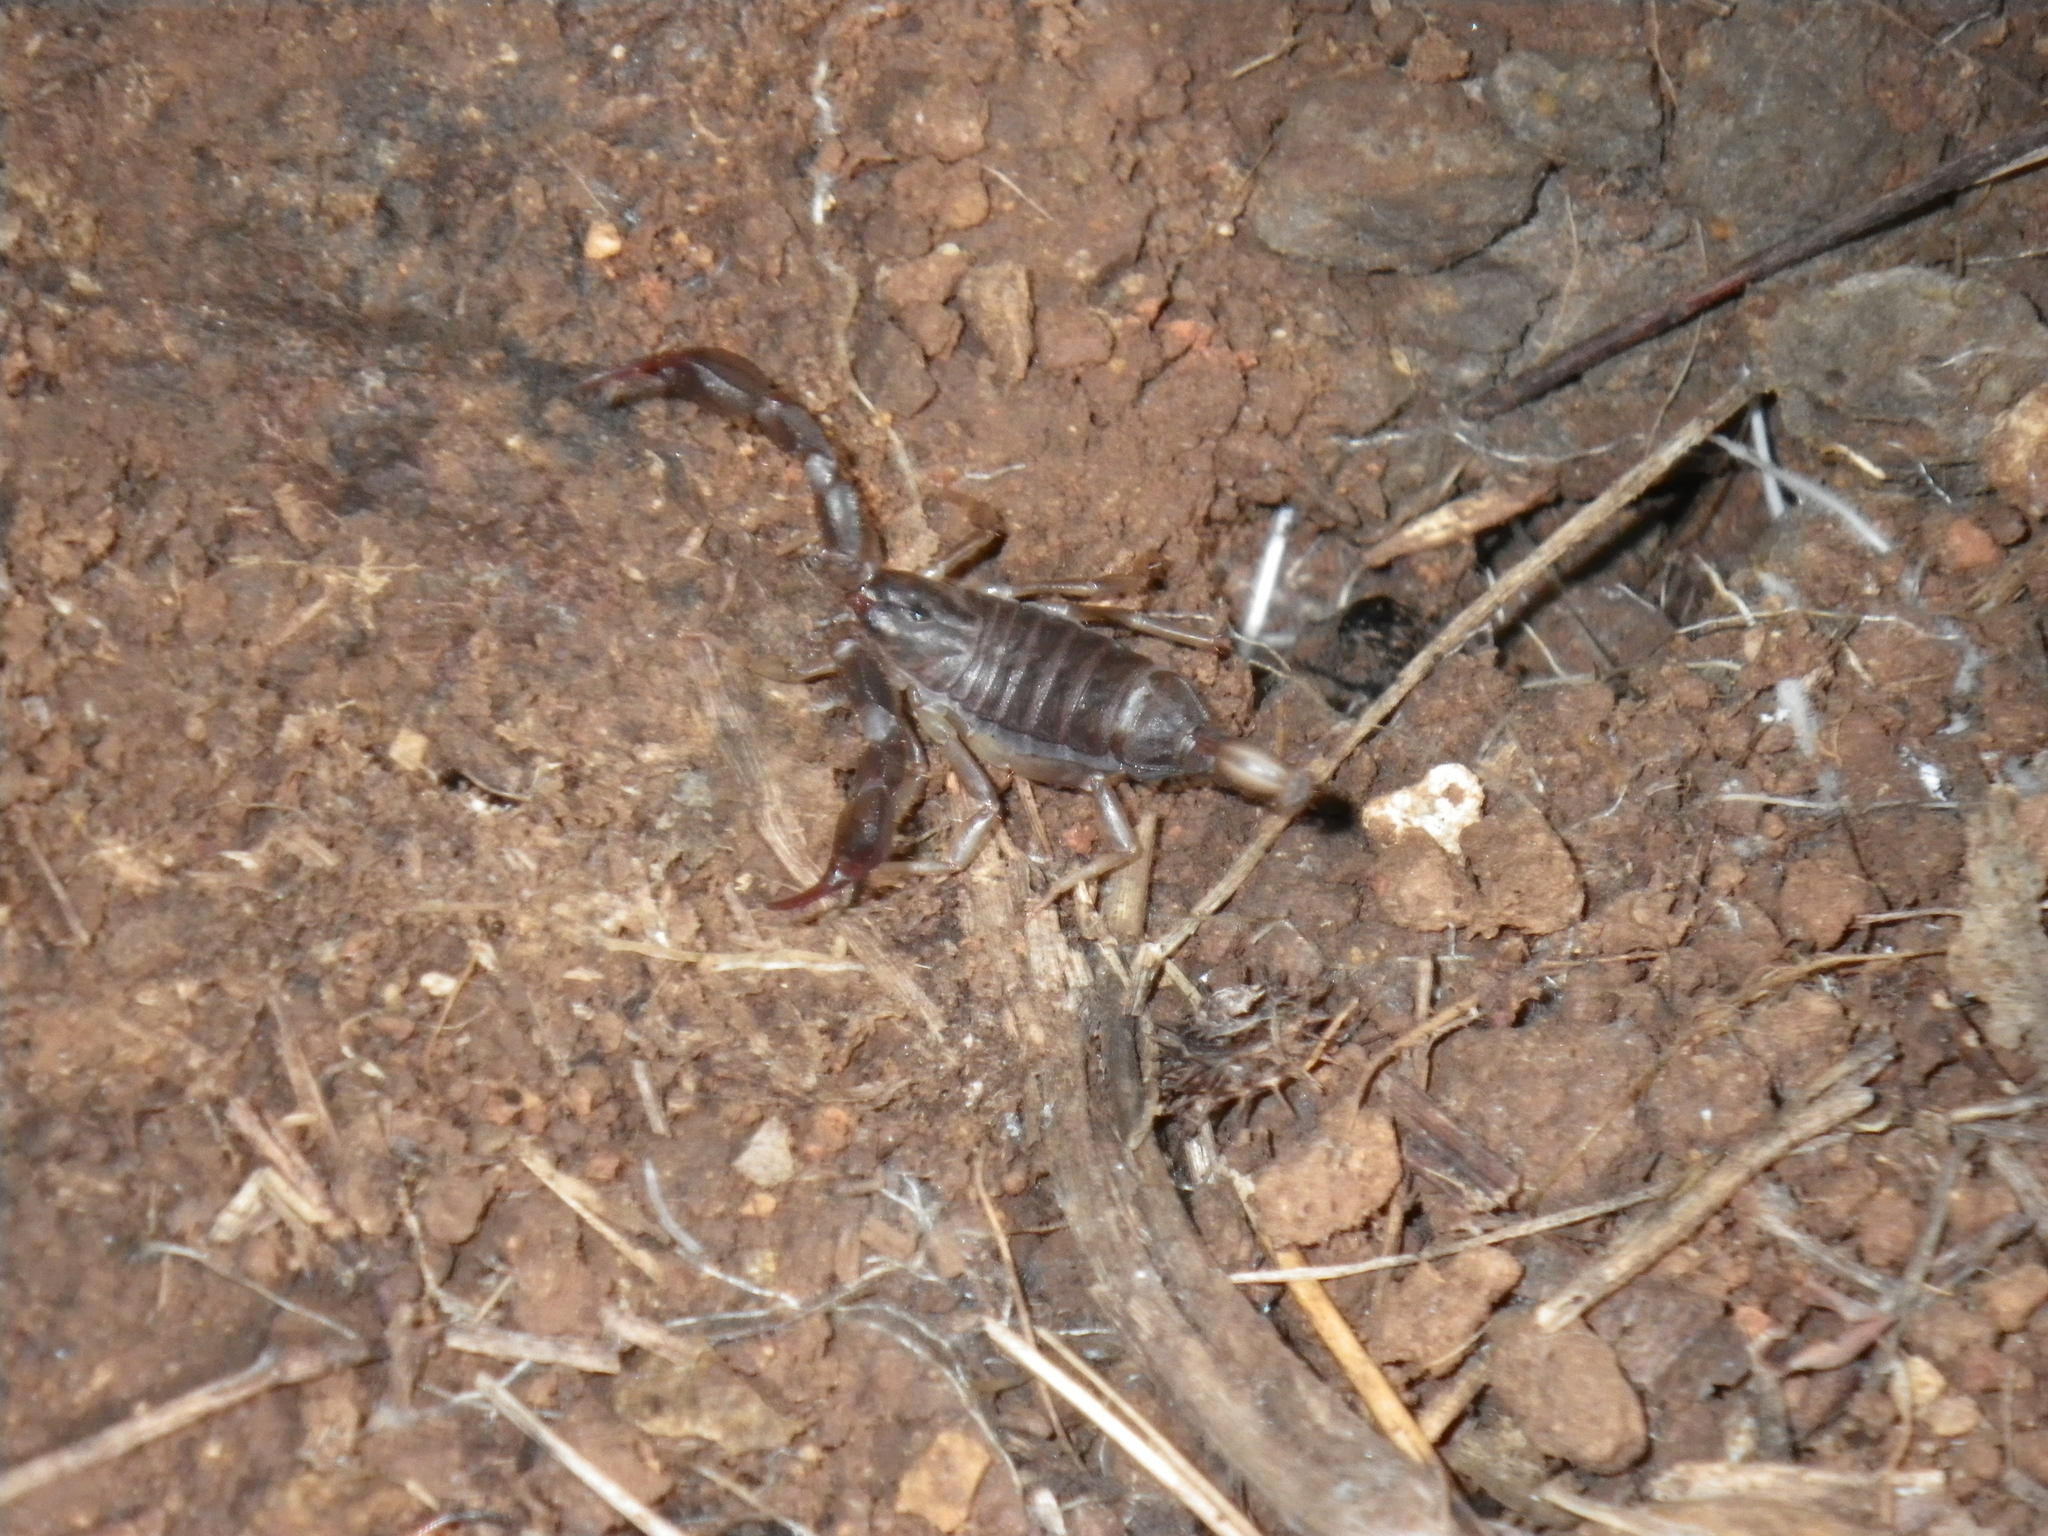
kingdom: Animalia
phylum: Arthropoda
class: Arachnida
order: Scorpiones
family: Chactidae
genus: Uroctonus
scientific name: Uroctonus mordax
